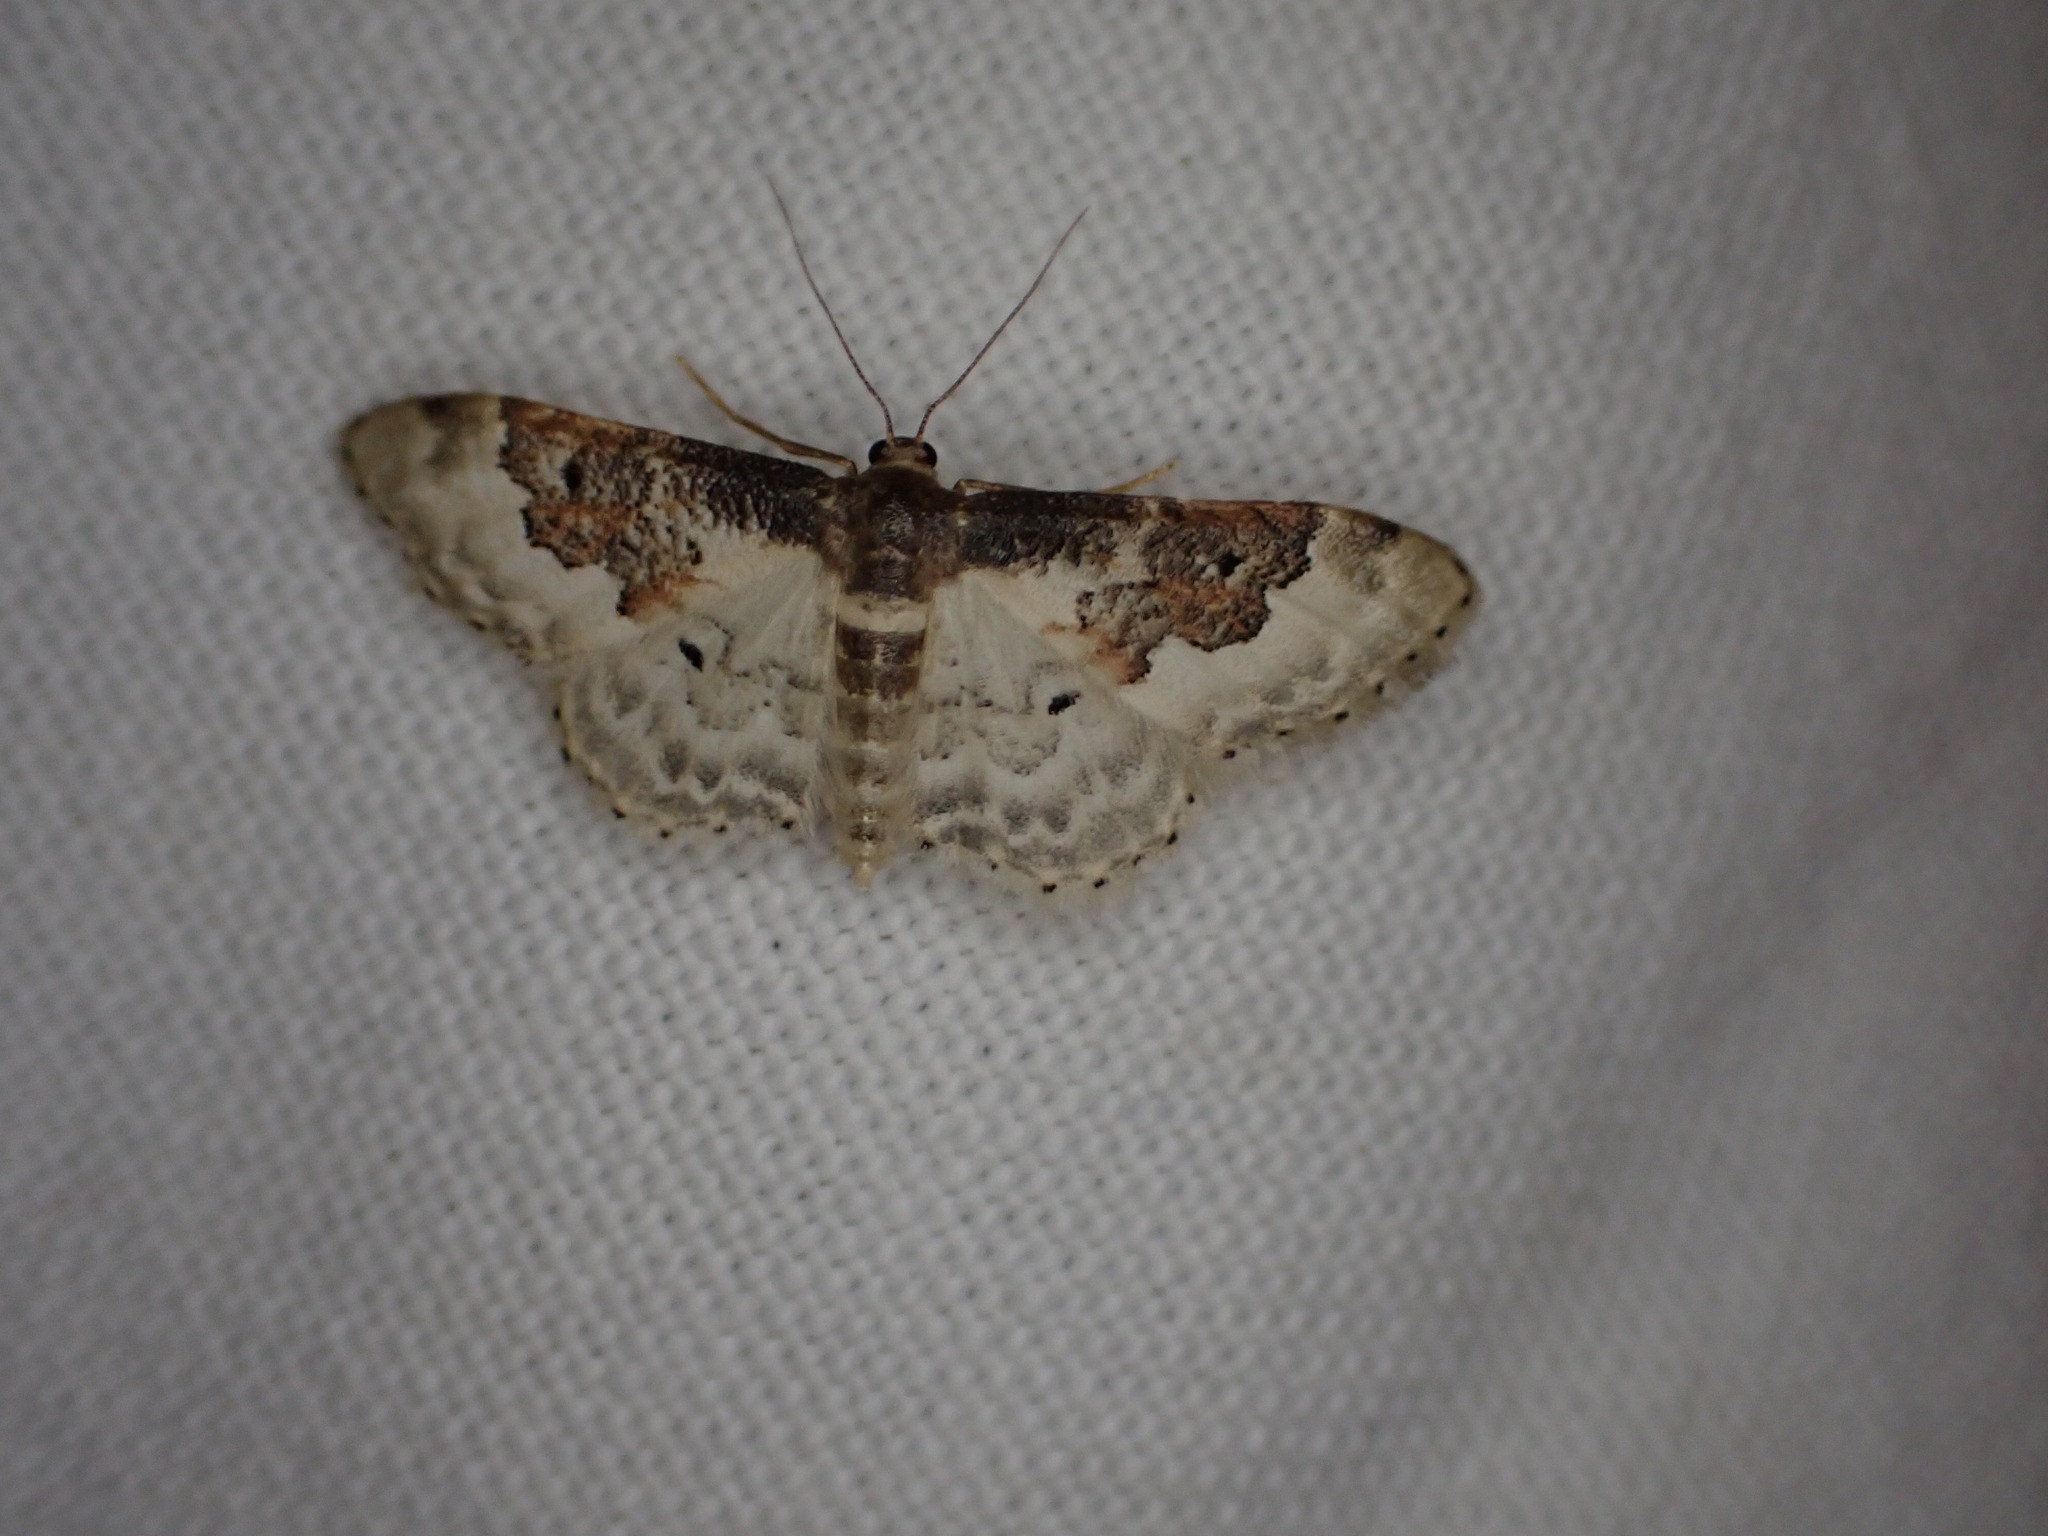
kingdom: Animalia
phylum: Arthropoda
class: Insecta
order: Lepidoptera
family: Geometridae
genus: Idaea
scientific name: Idaea rusticata
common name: Least carpet
